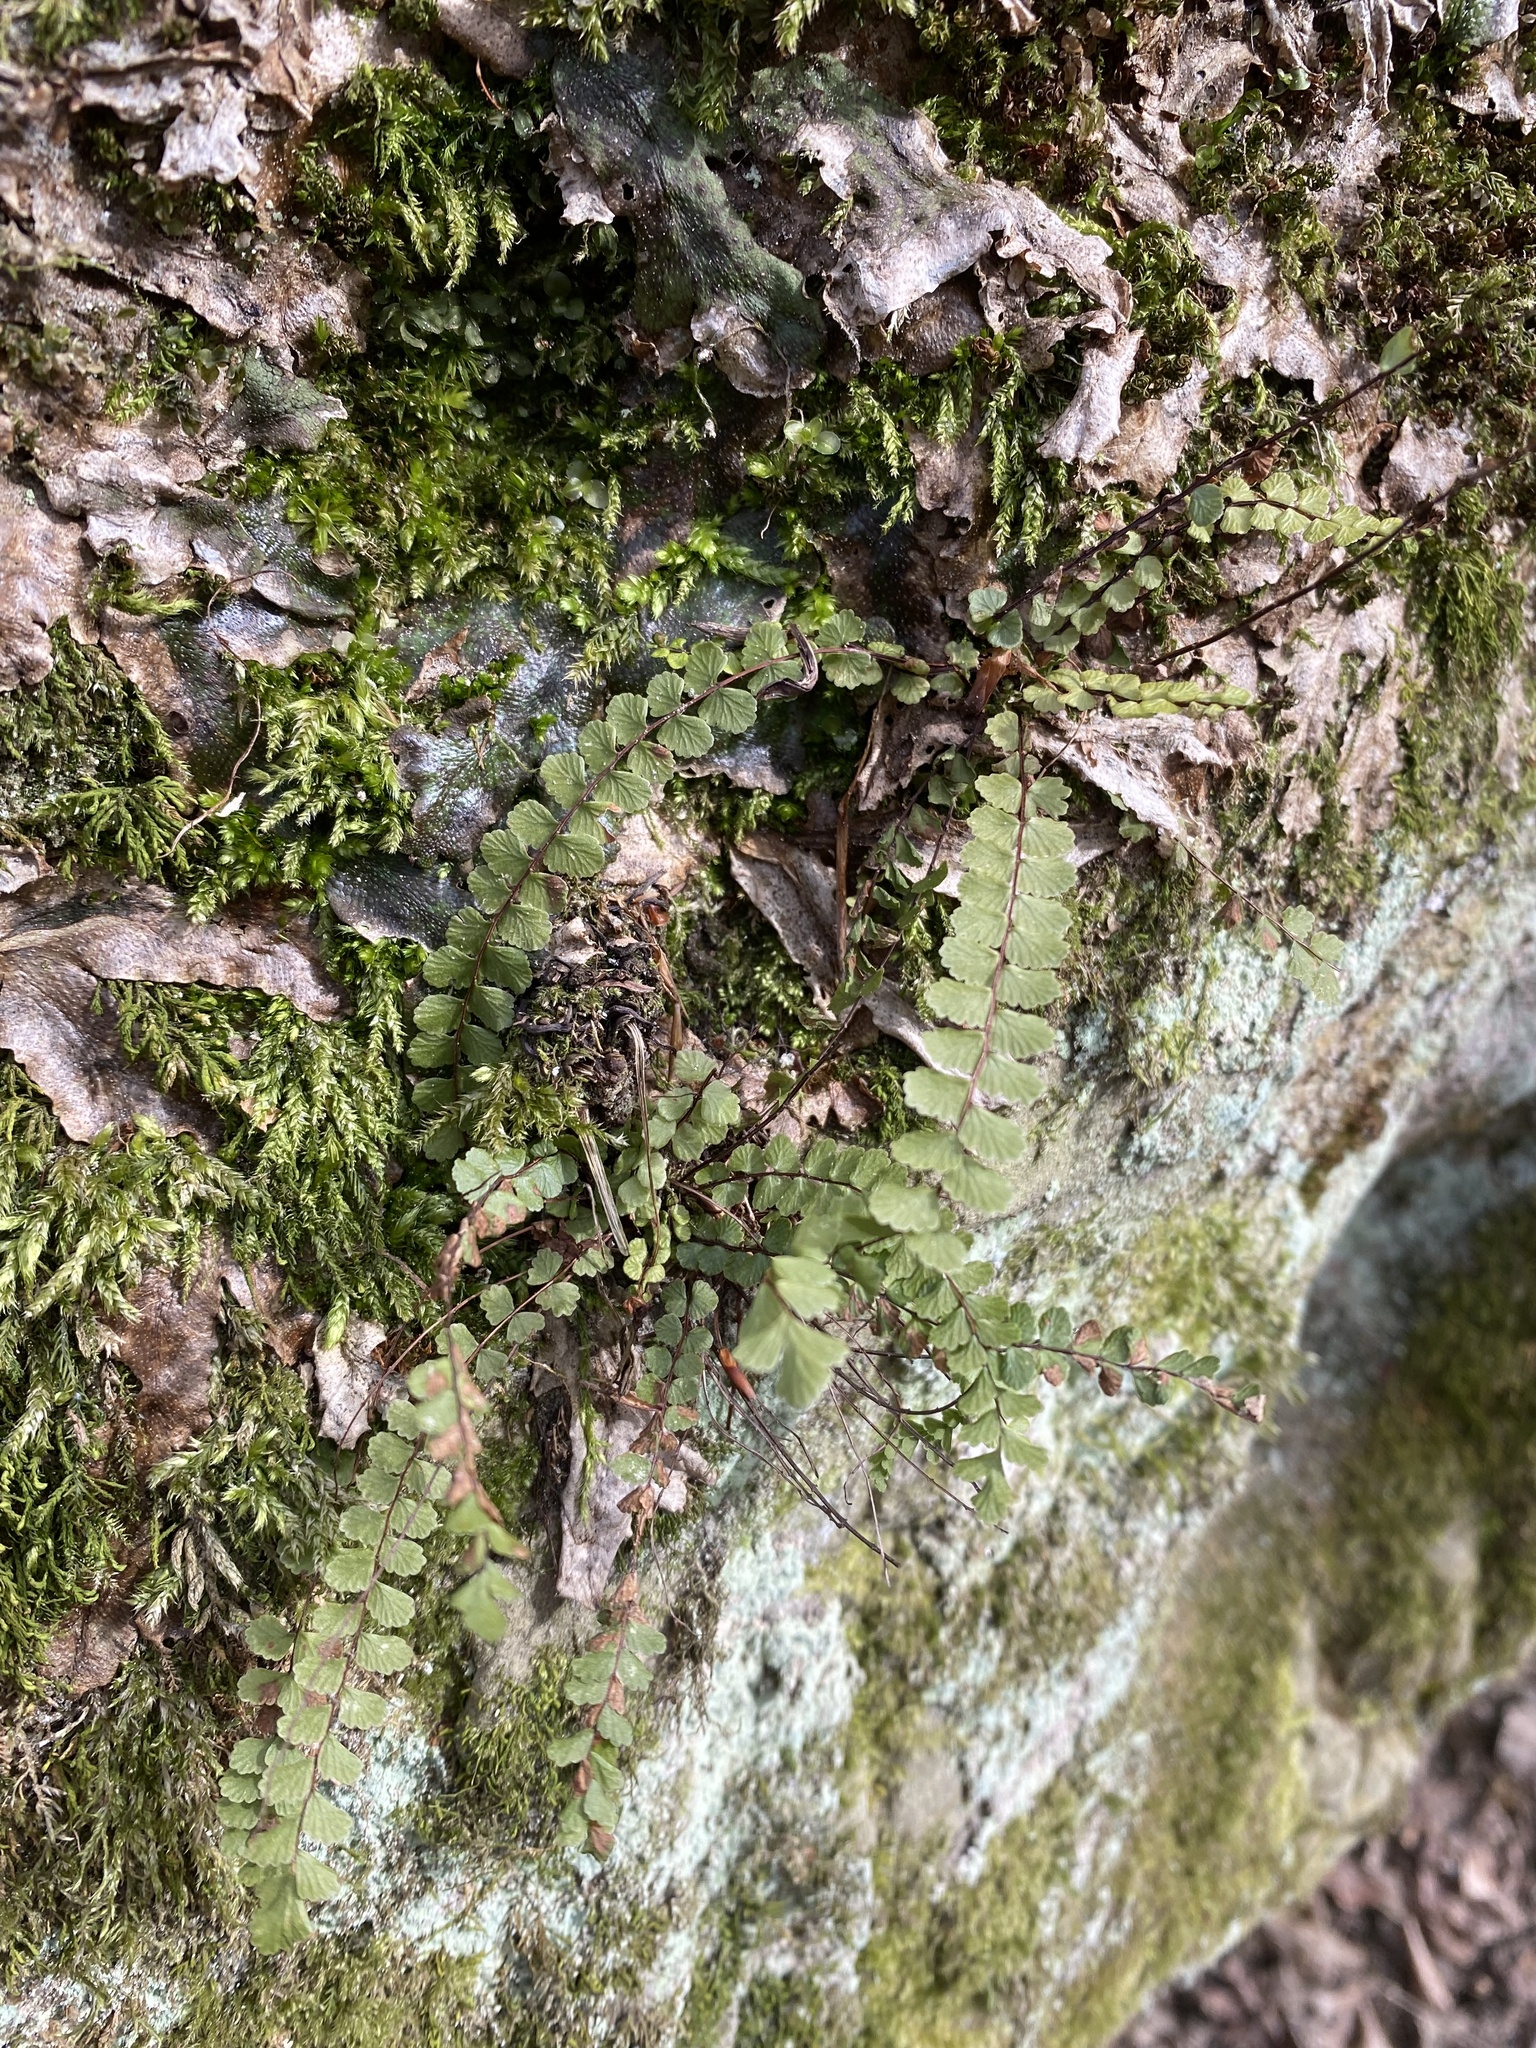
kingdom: Plantae
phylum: Tracheophyta
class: Polypodiopsida
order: Polypodiales
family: Aspleniaceae
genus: Asplenium
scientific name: Asplenium trichomanes
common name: Maidenhair spleenwort
